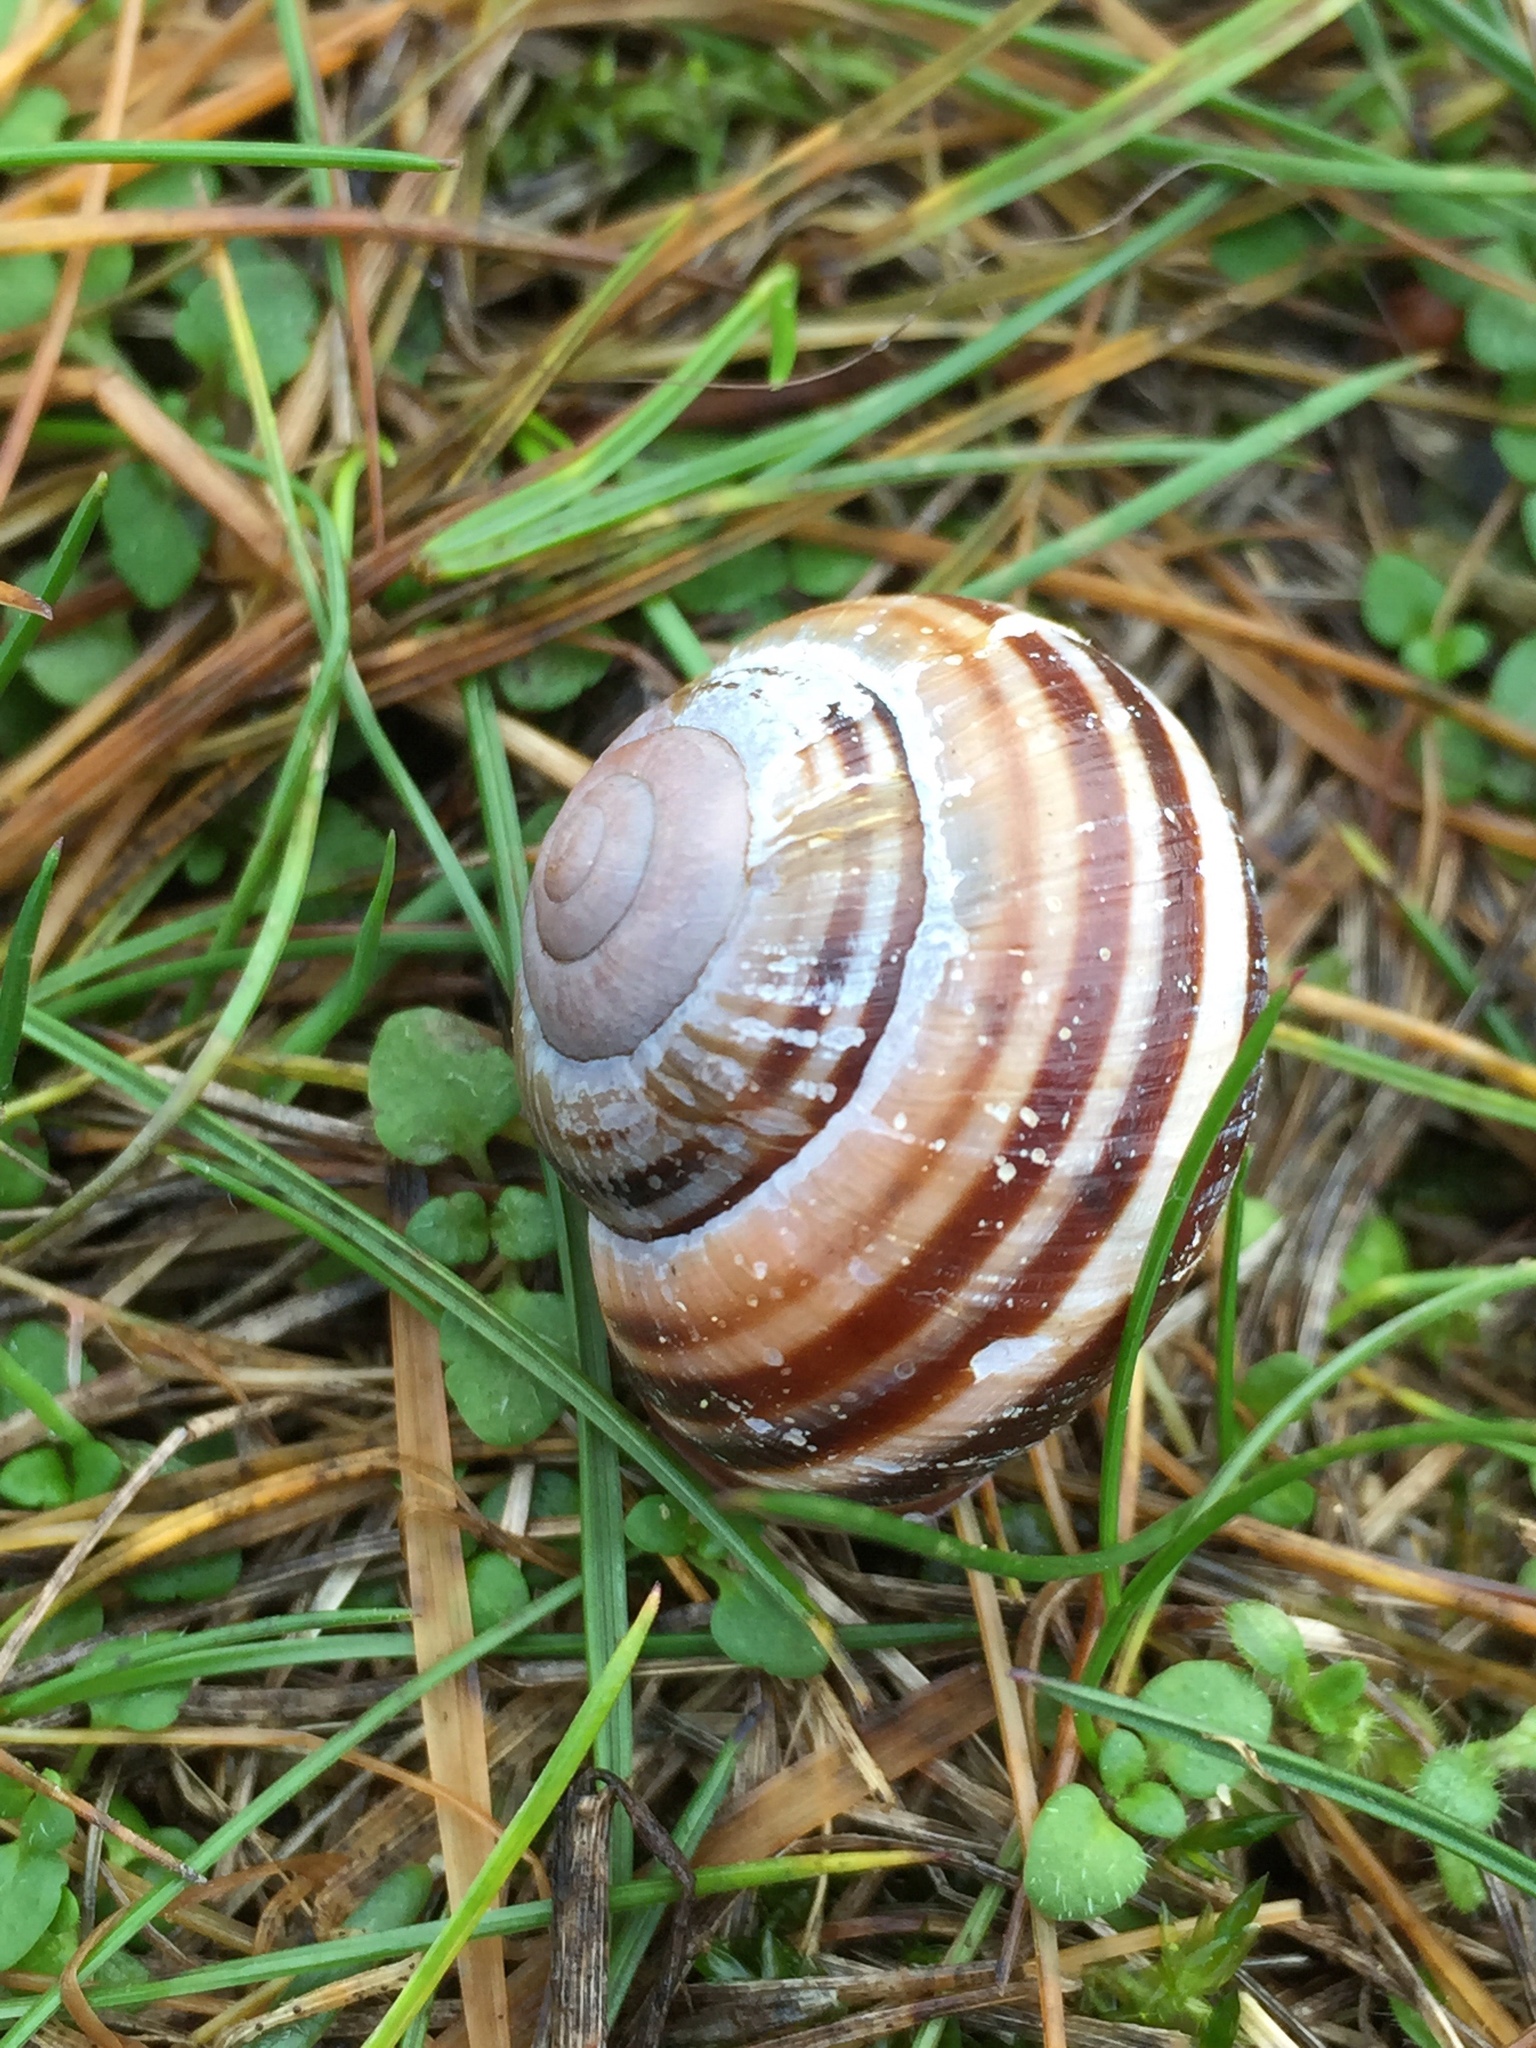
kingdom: Animalia
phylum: Mollusca
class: Gastropoda
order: Stylommatophora
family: Helicidae
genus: Cepaea
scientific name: Cepaea nemoralis
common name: Grovesnail
